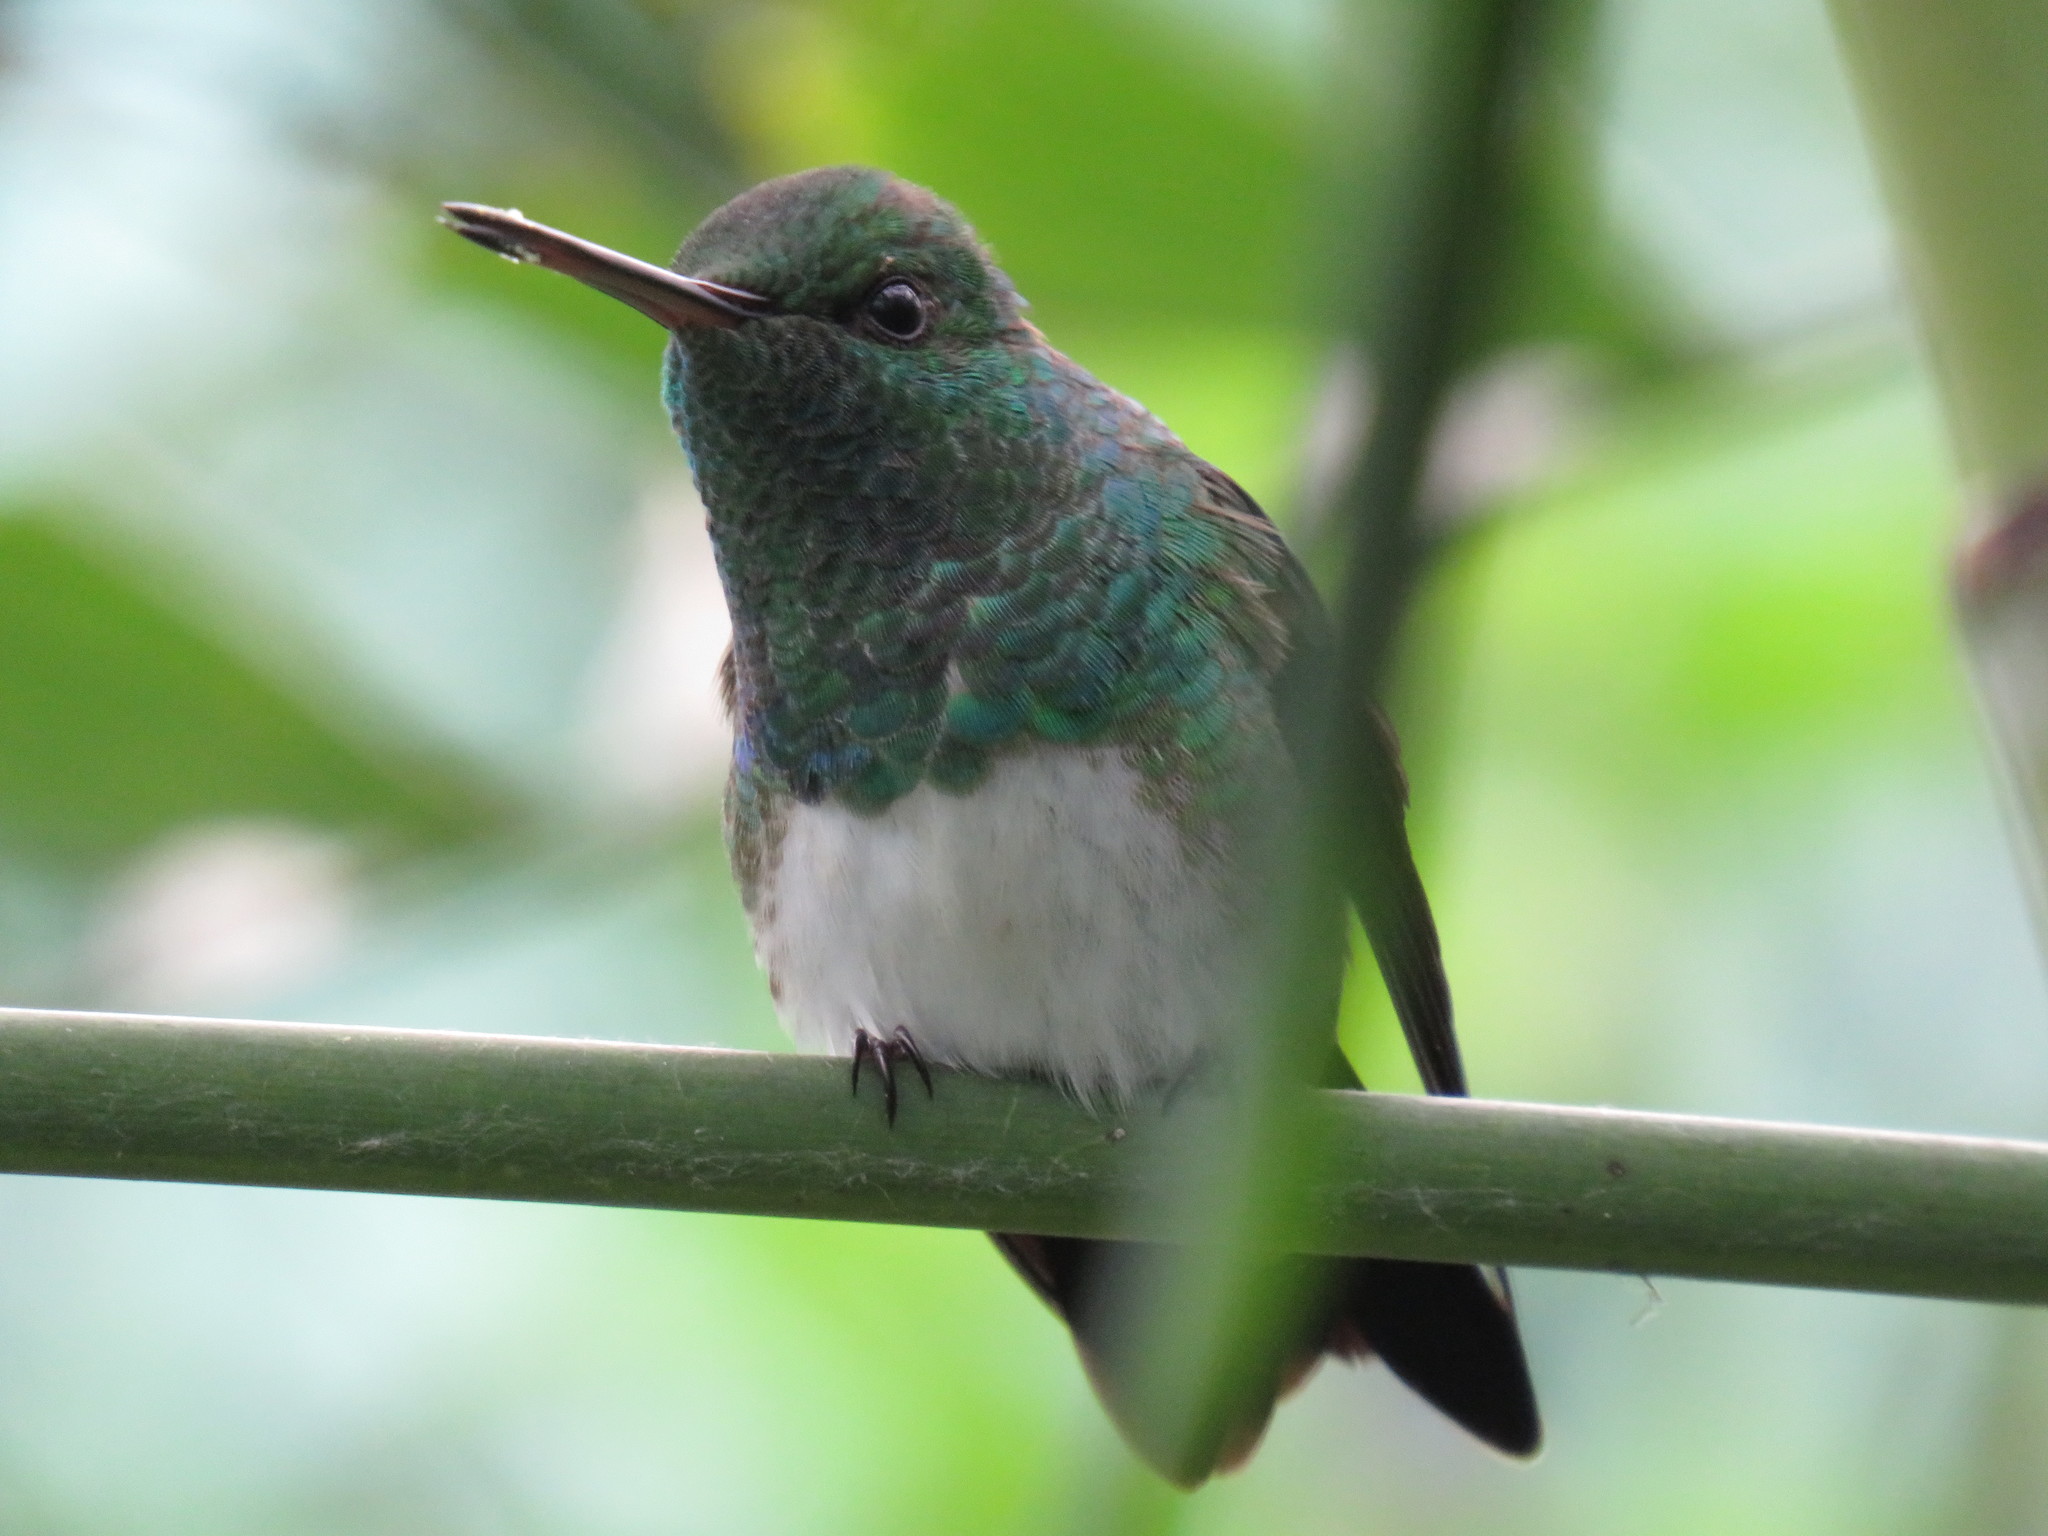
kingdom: Animalia
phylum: Chordata
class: Aves
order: Apodiformes
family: Trochilidae
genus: Saucerottia
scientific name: Saucerottia edward
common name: Snowy-bellied hummingbird
